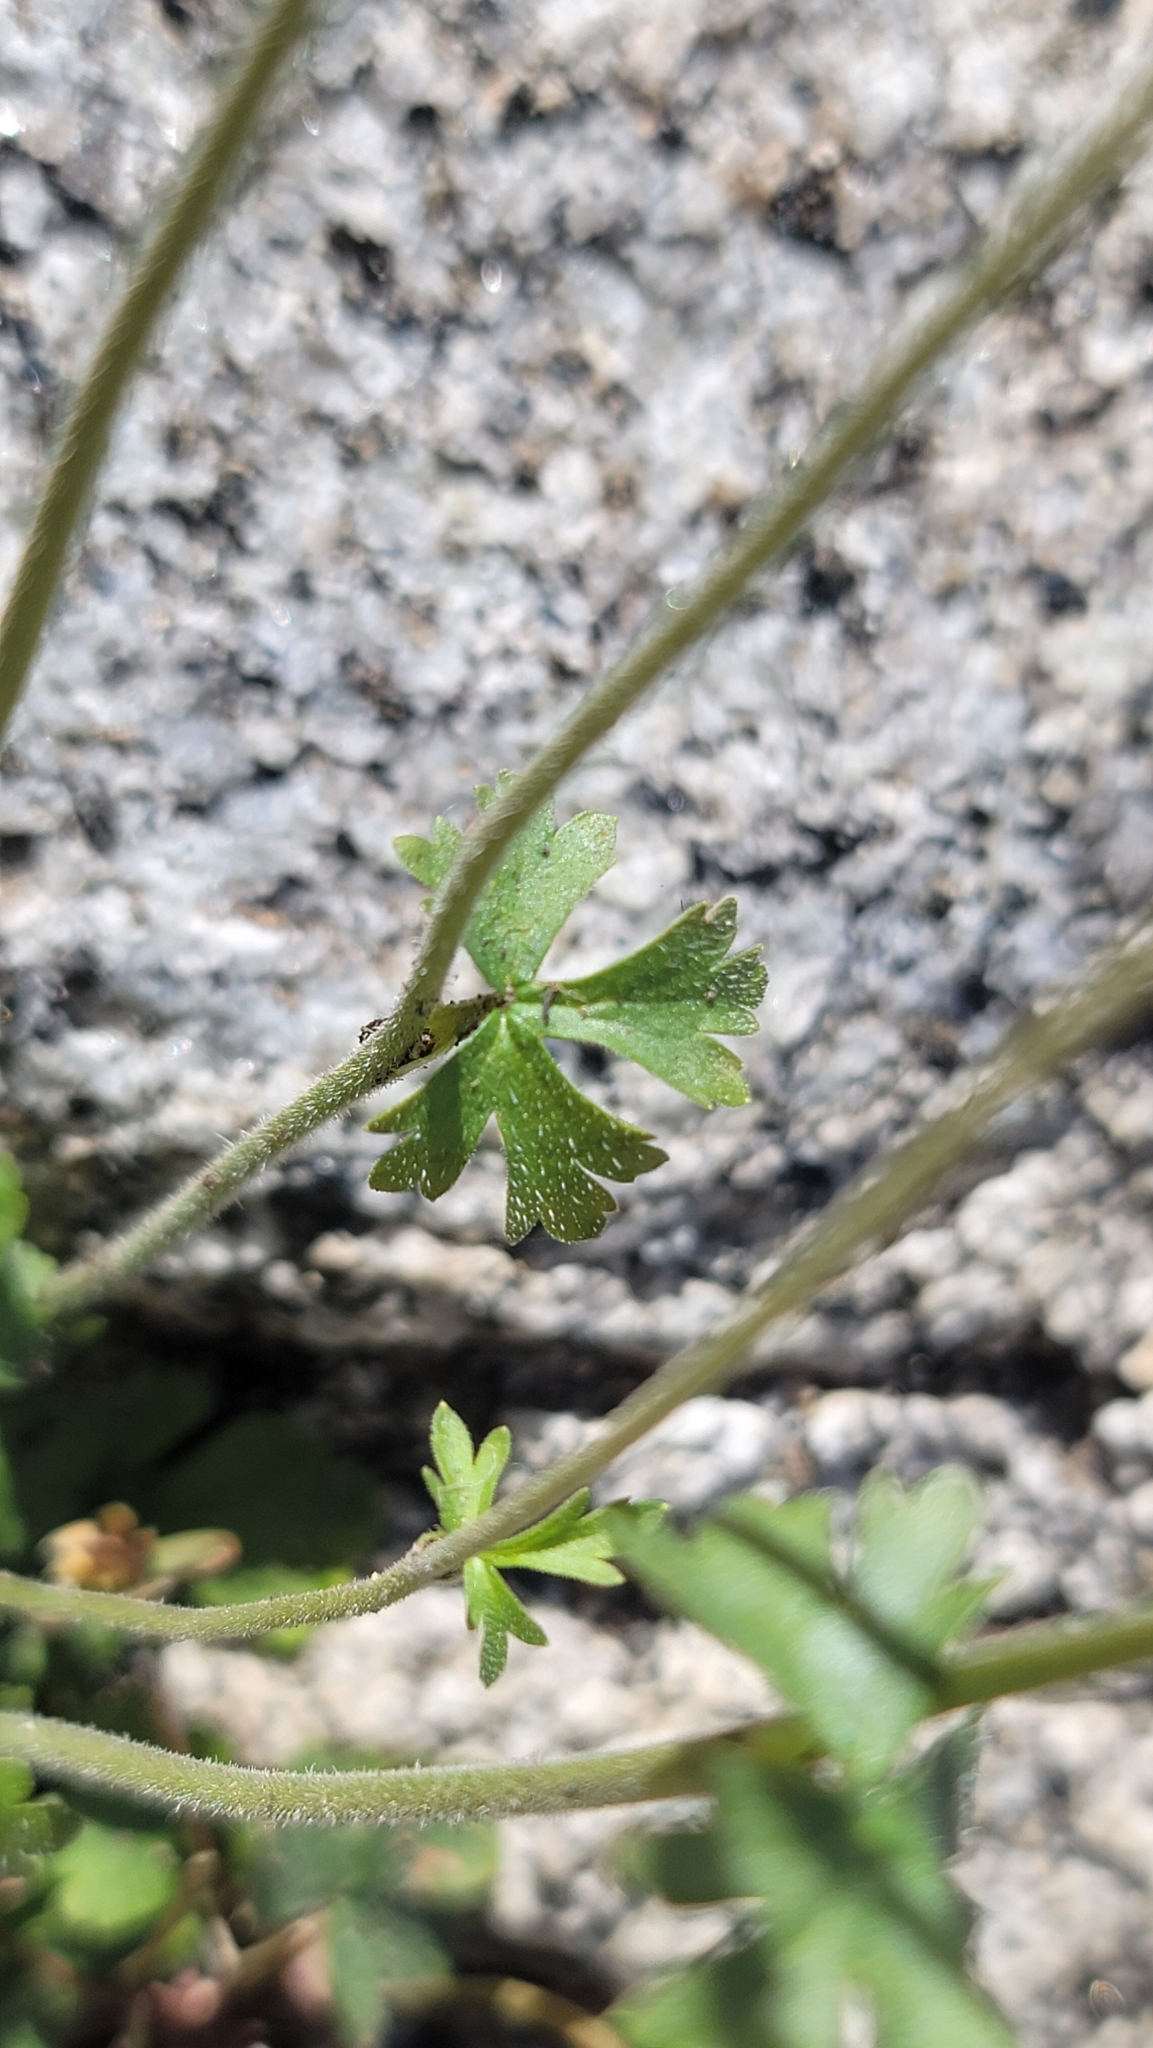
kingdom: Plantae
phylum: Tracheophyta
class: Magnoliopsida
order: Saxifragales
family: Saxifragaceae
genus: Lithophragma
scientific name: Lithophragma affine
